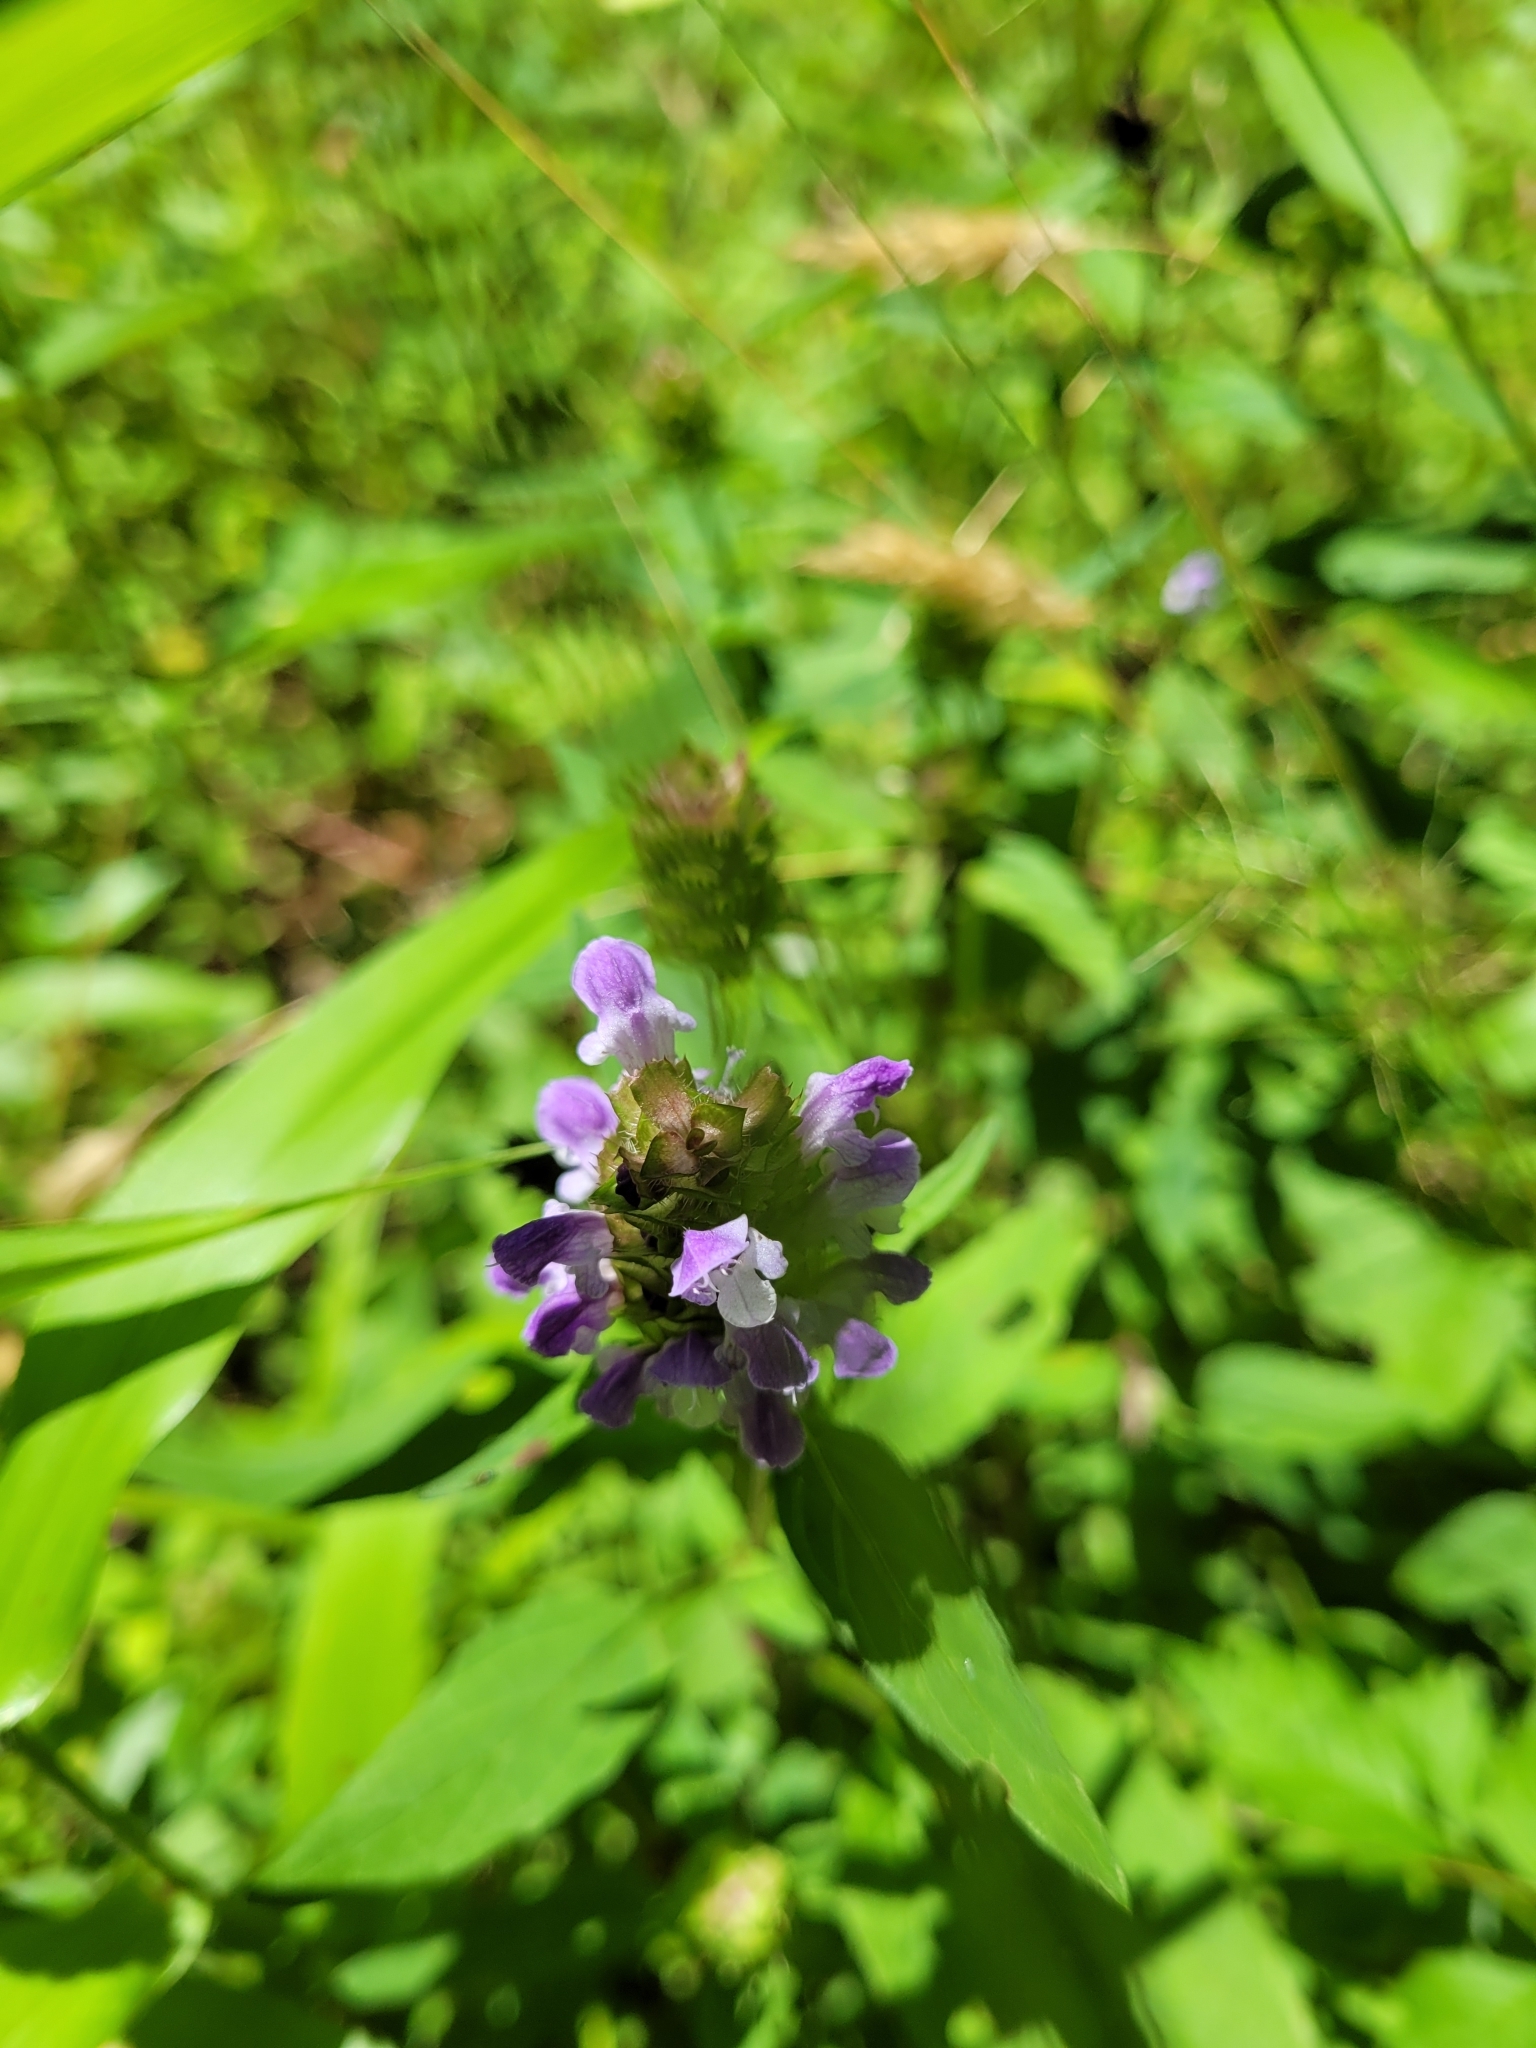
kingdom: Plantae
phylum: Tracheophyta
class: Magnoliopsida
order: Lamiales
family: Lamiaceae
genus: Prunella
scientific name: Prunella vulgaris
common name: Heal-all
